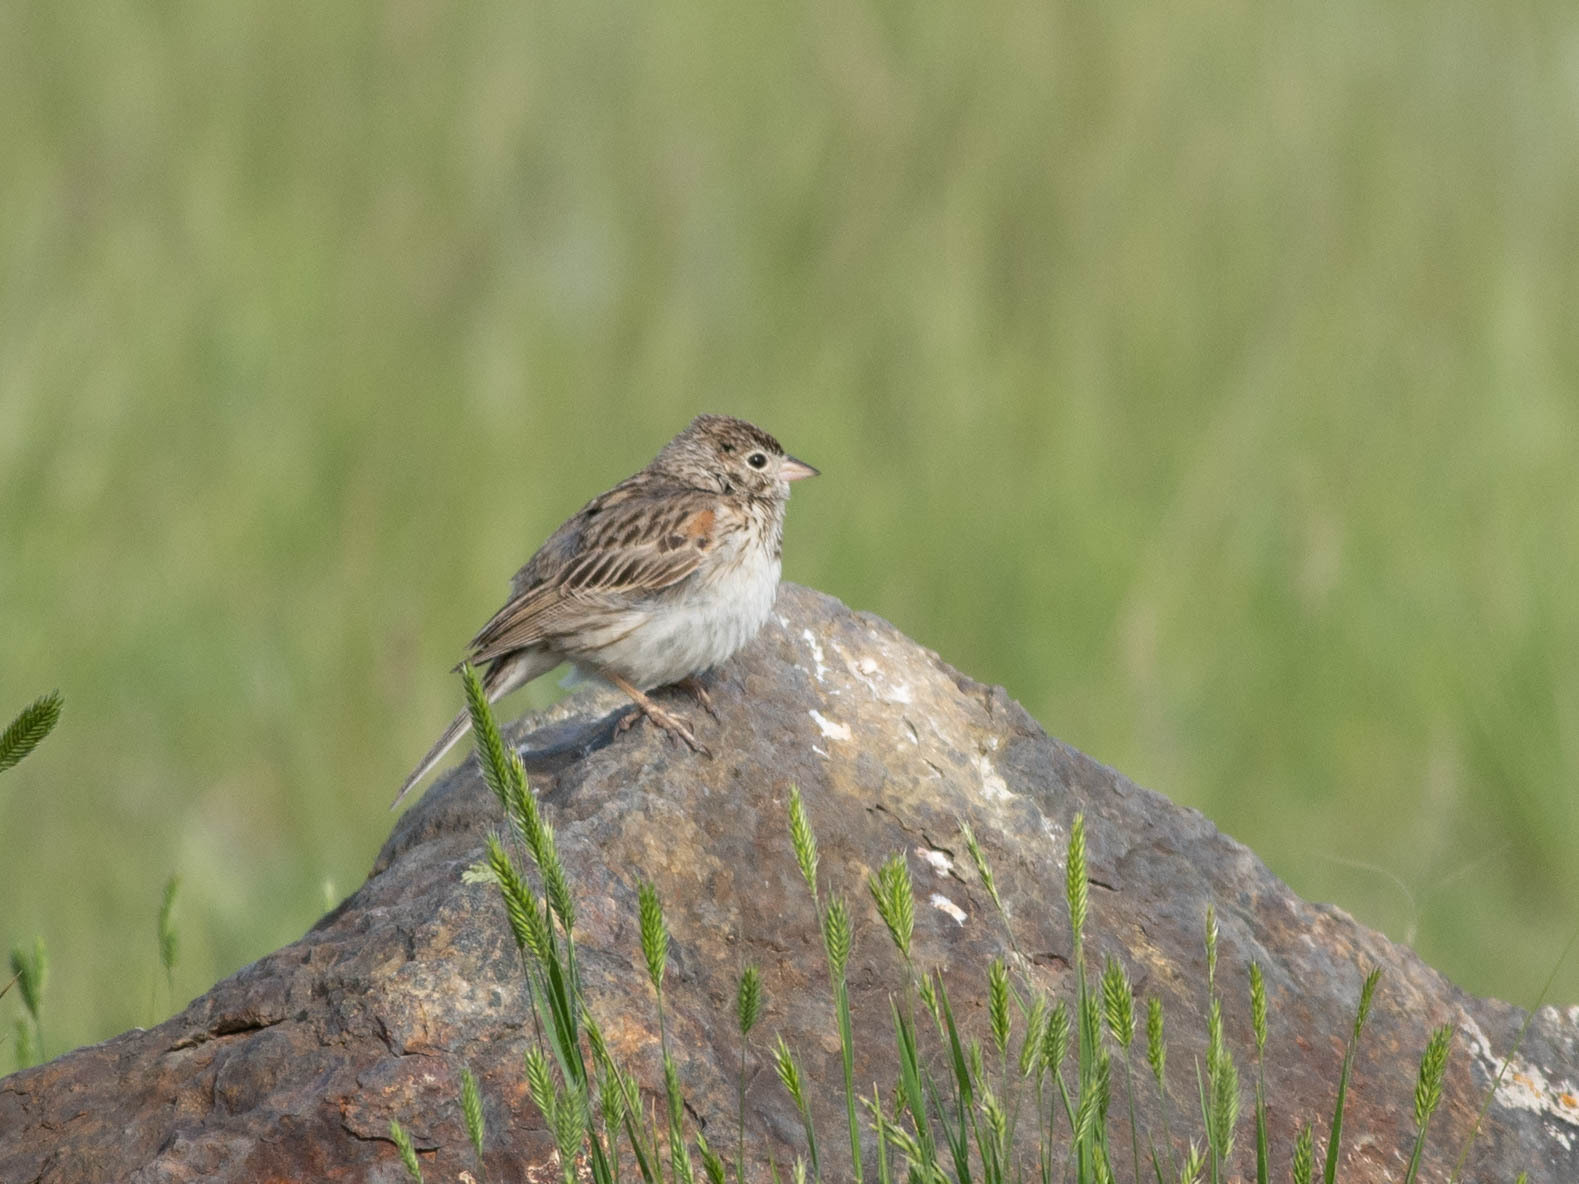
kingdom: Animalia
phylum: Chordata
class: Aves
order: Passeriformes
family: Passerellidae
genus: Pooecetes
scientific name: Pooecetes gramineus
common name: Vesper sparrow
